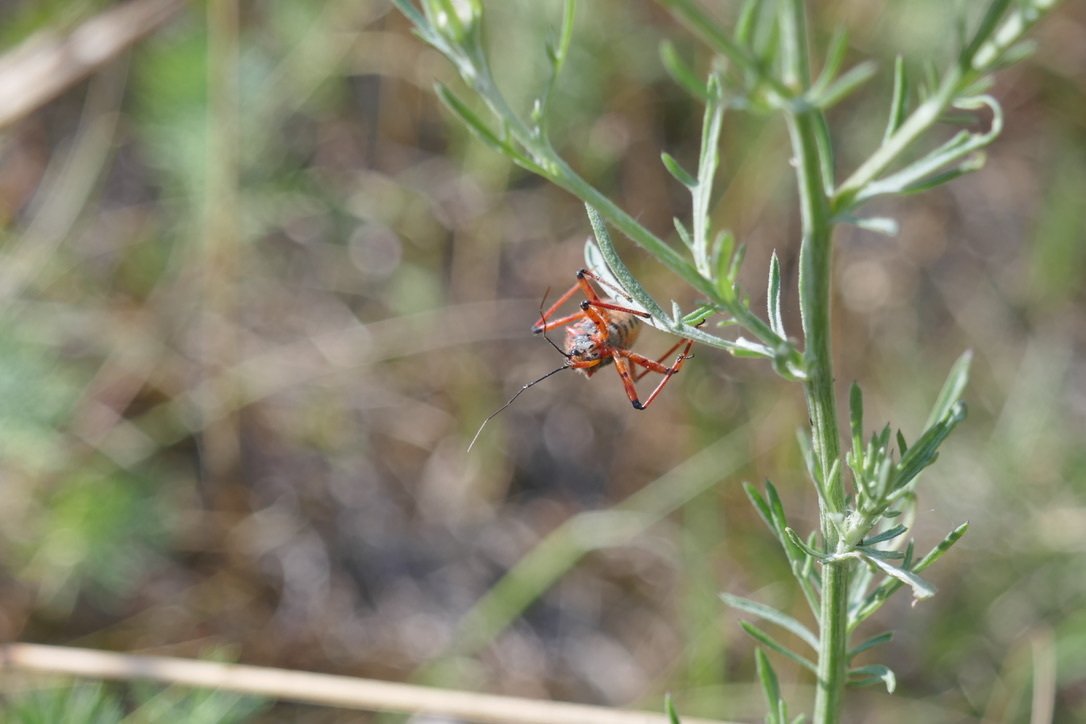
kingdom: Animalia
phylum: Arthropoda
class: Insecta
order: Hemiptera
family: Reduviidae
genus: Rhynocoris
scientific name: Rhynocoris iracundus
